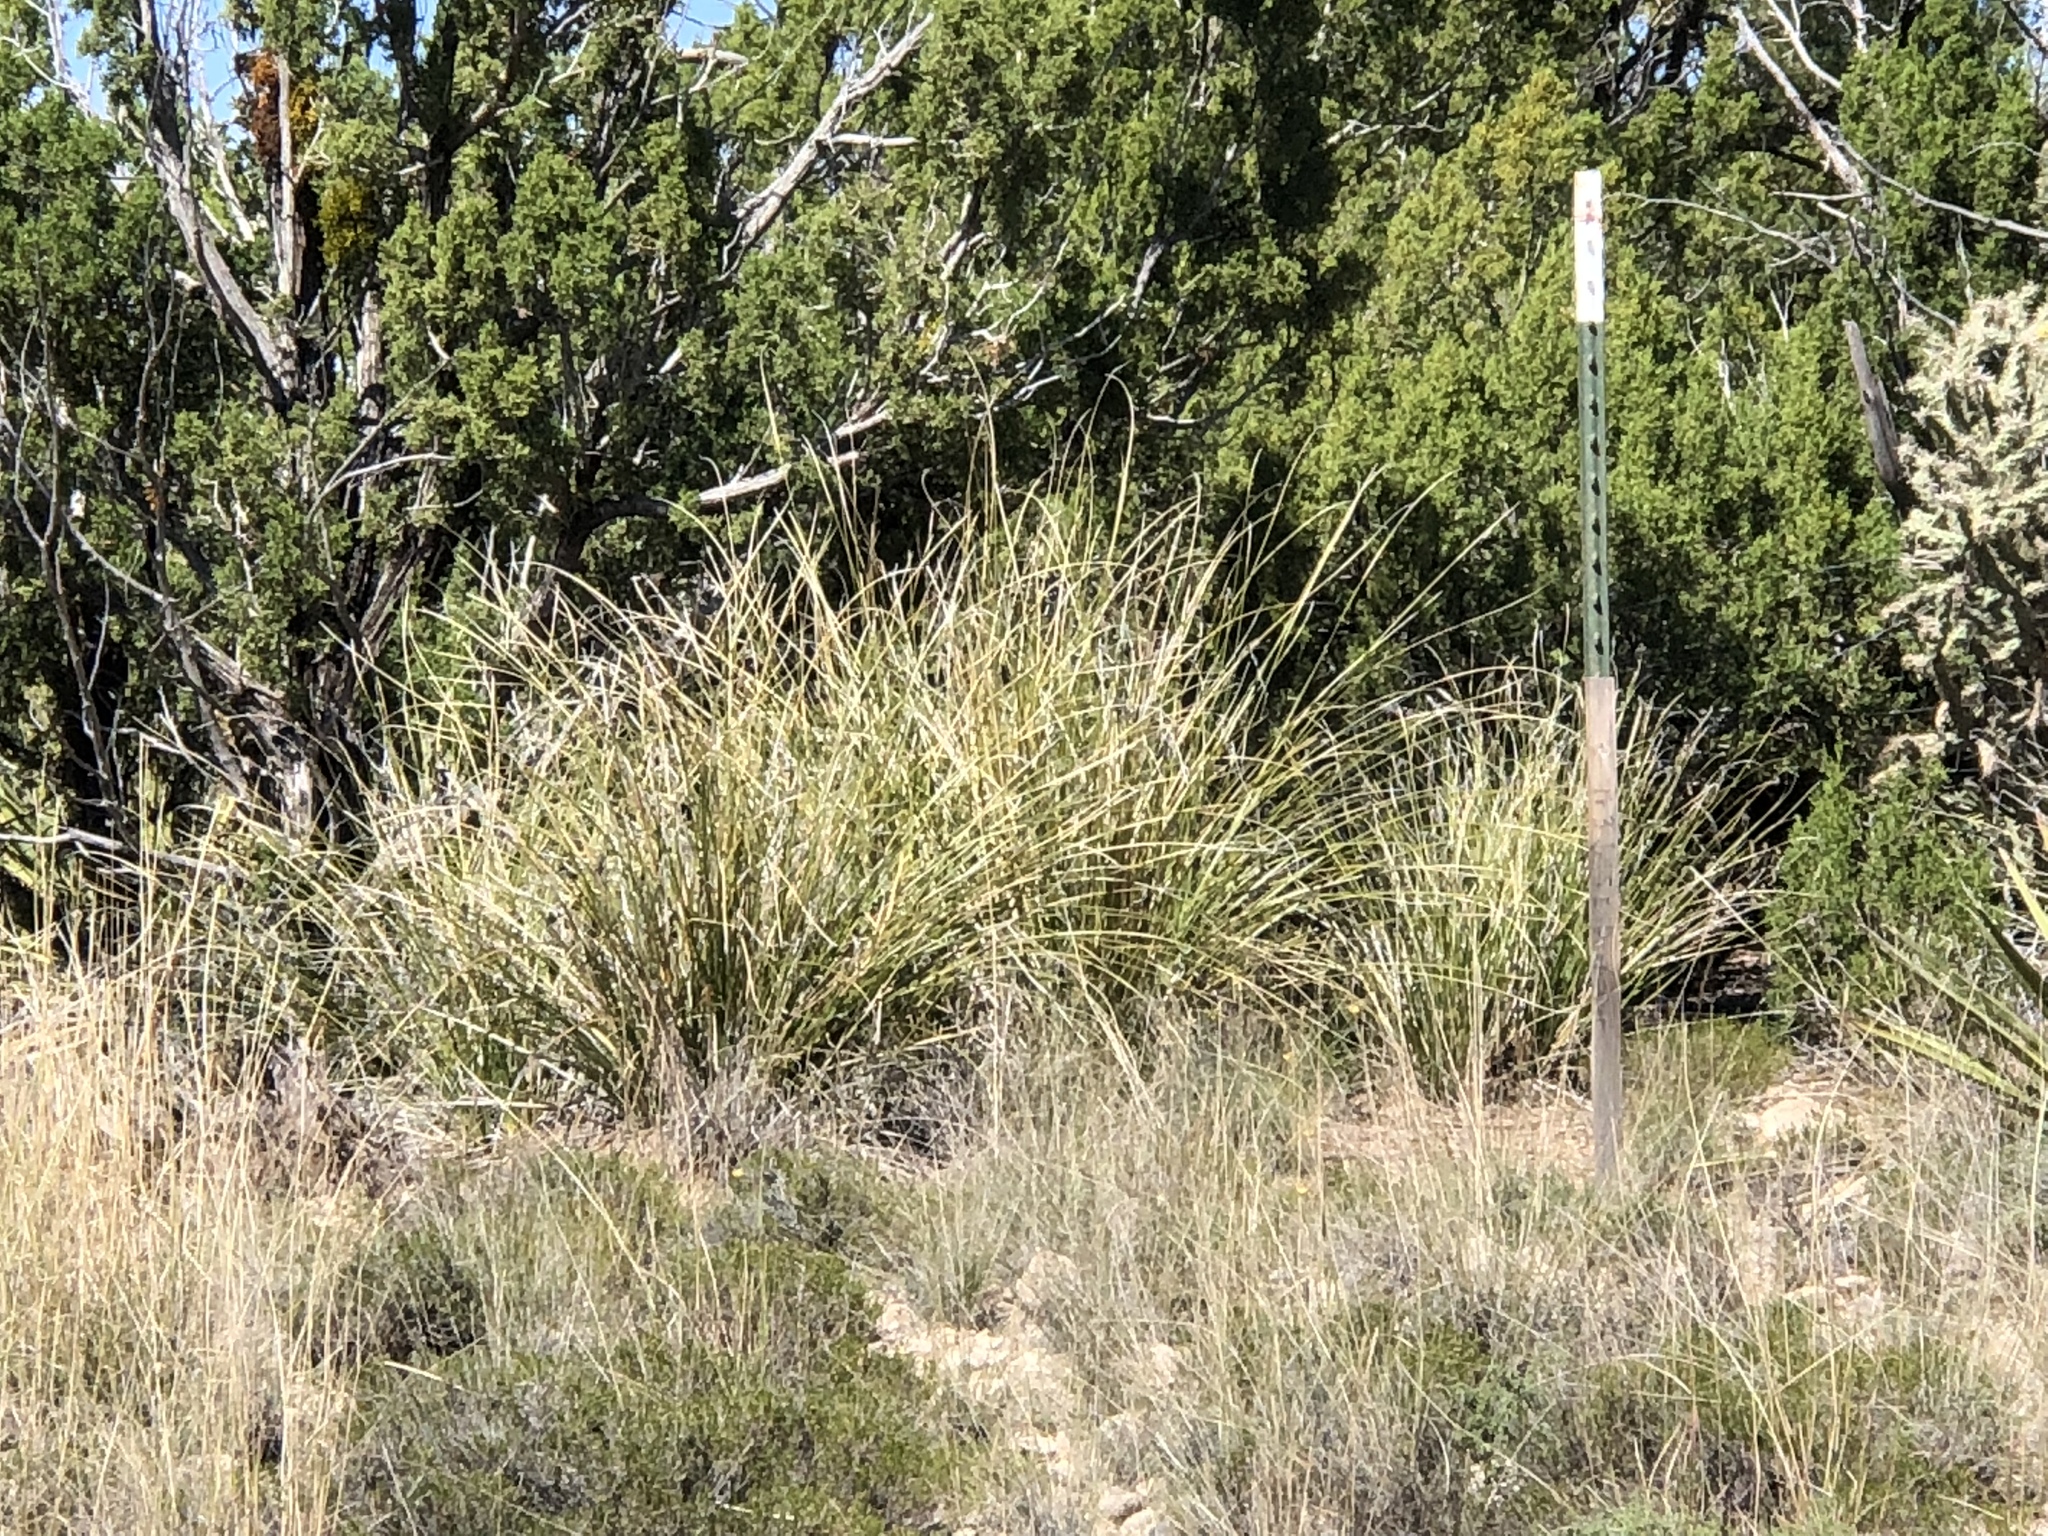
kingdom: Plantae
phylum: Tracheophyta
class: Liliopsida
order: Asparagales
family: Asparagaceae
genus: Nolina
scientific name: Nolina microcarpa
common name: Bear-grass
